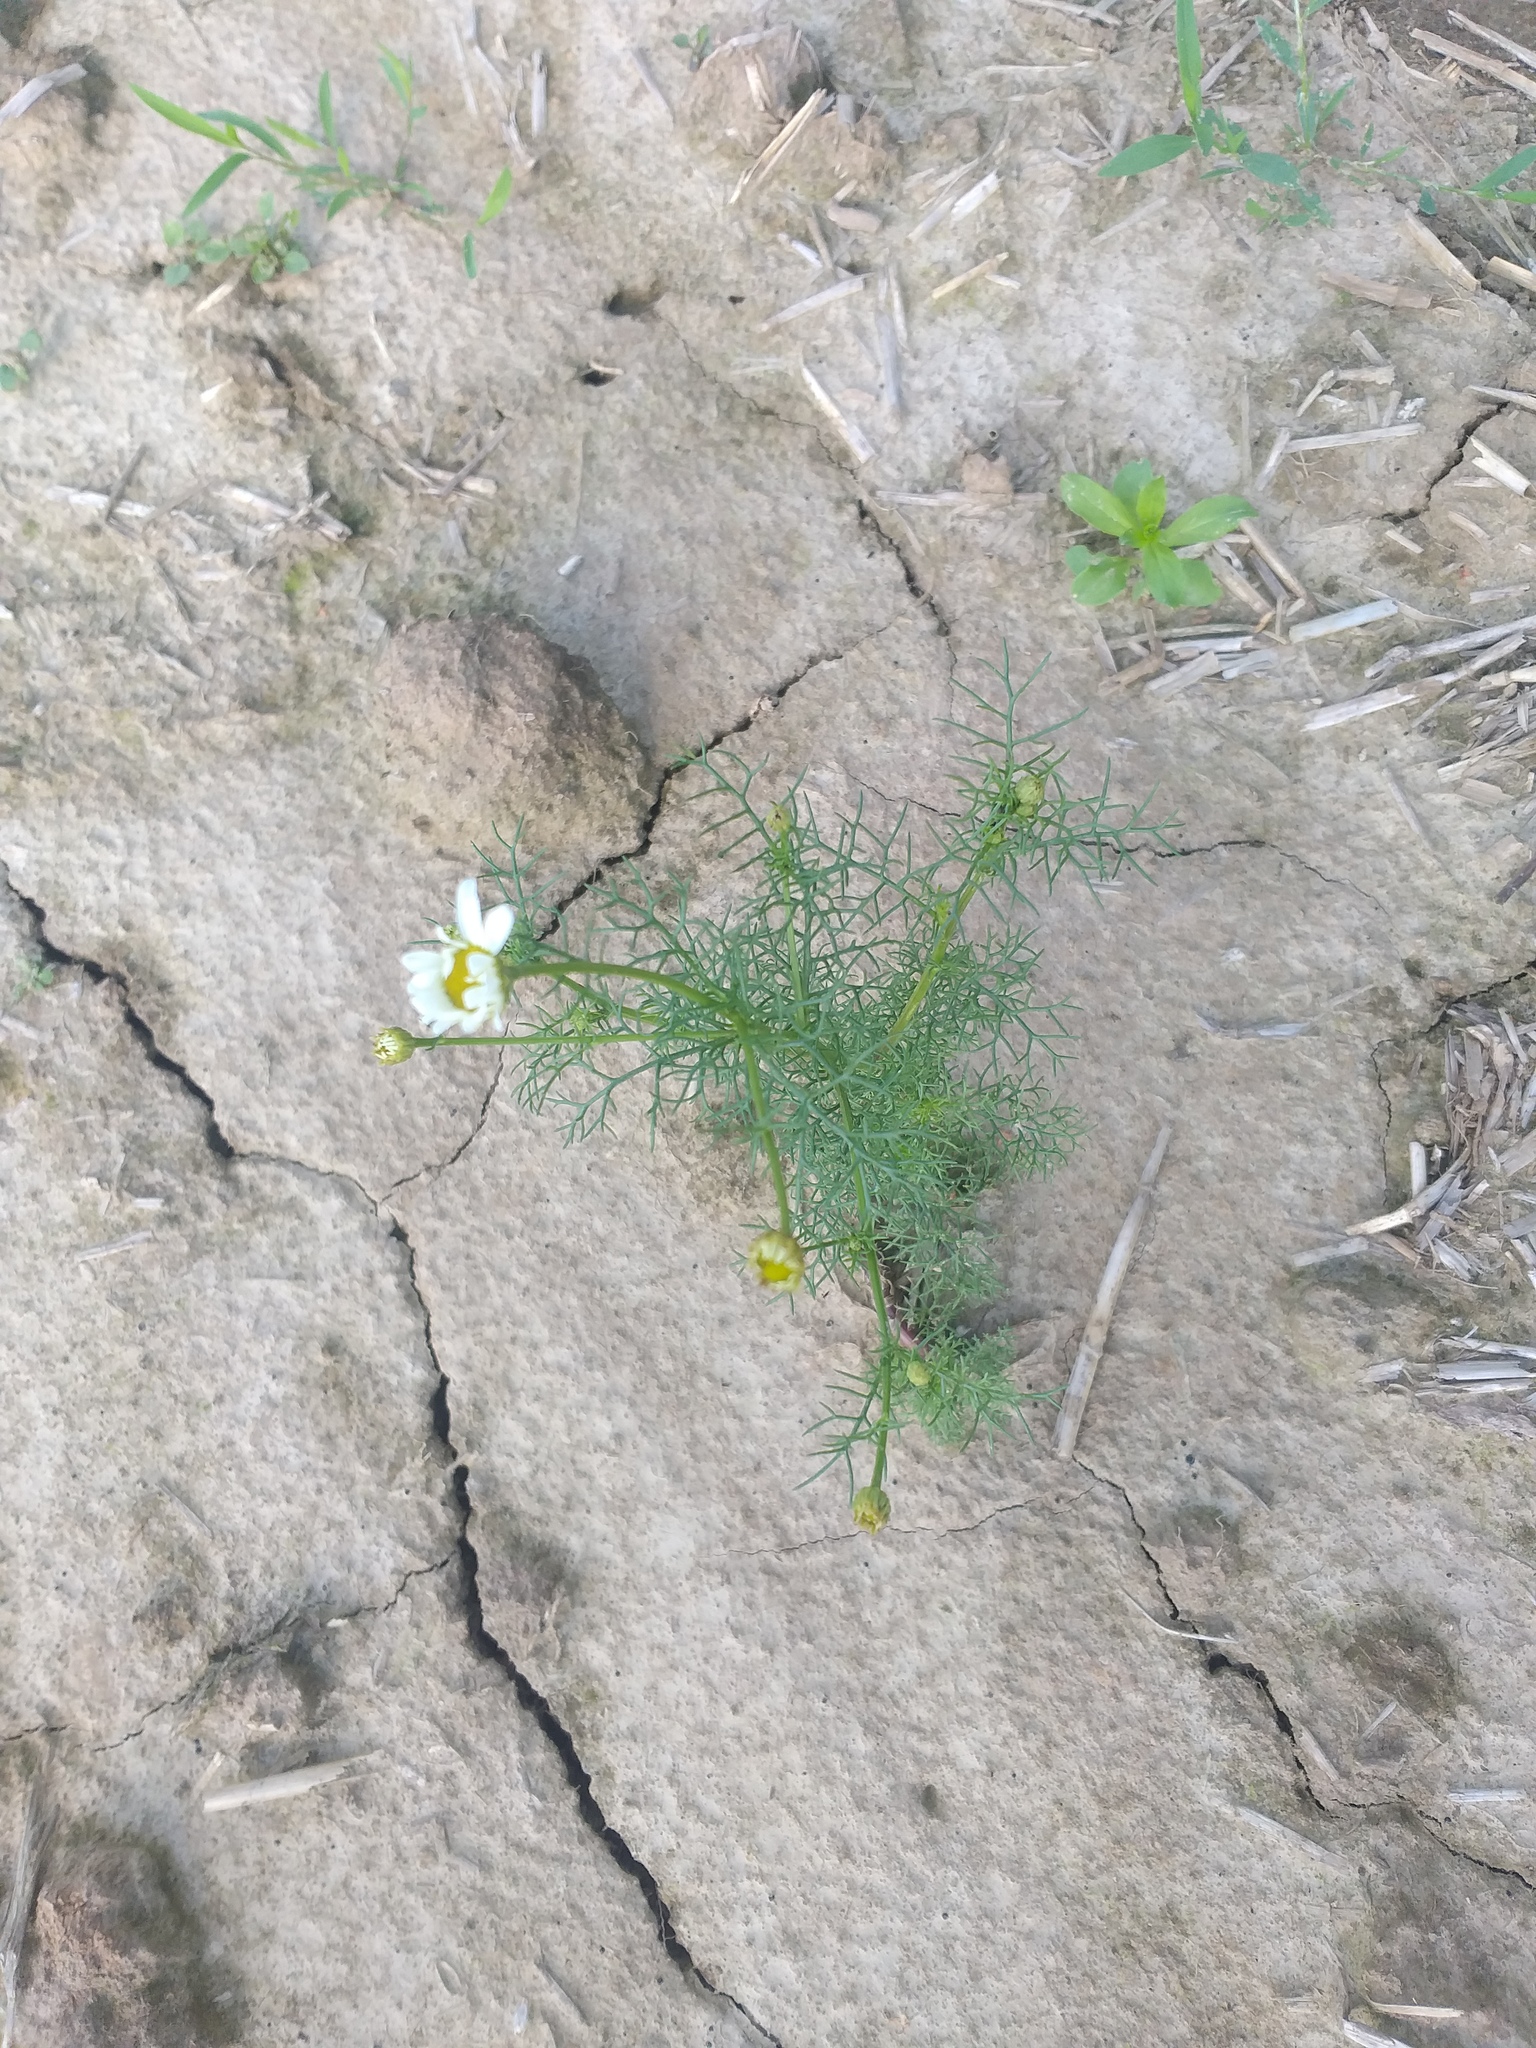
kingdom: Plantae
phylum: Tracheophyta
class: Magnoliopsida
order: Asterales
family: Asteraceae
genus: Tripleurospermum
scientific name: Tripleurospermum inodorum
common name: Scentless mayweed
